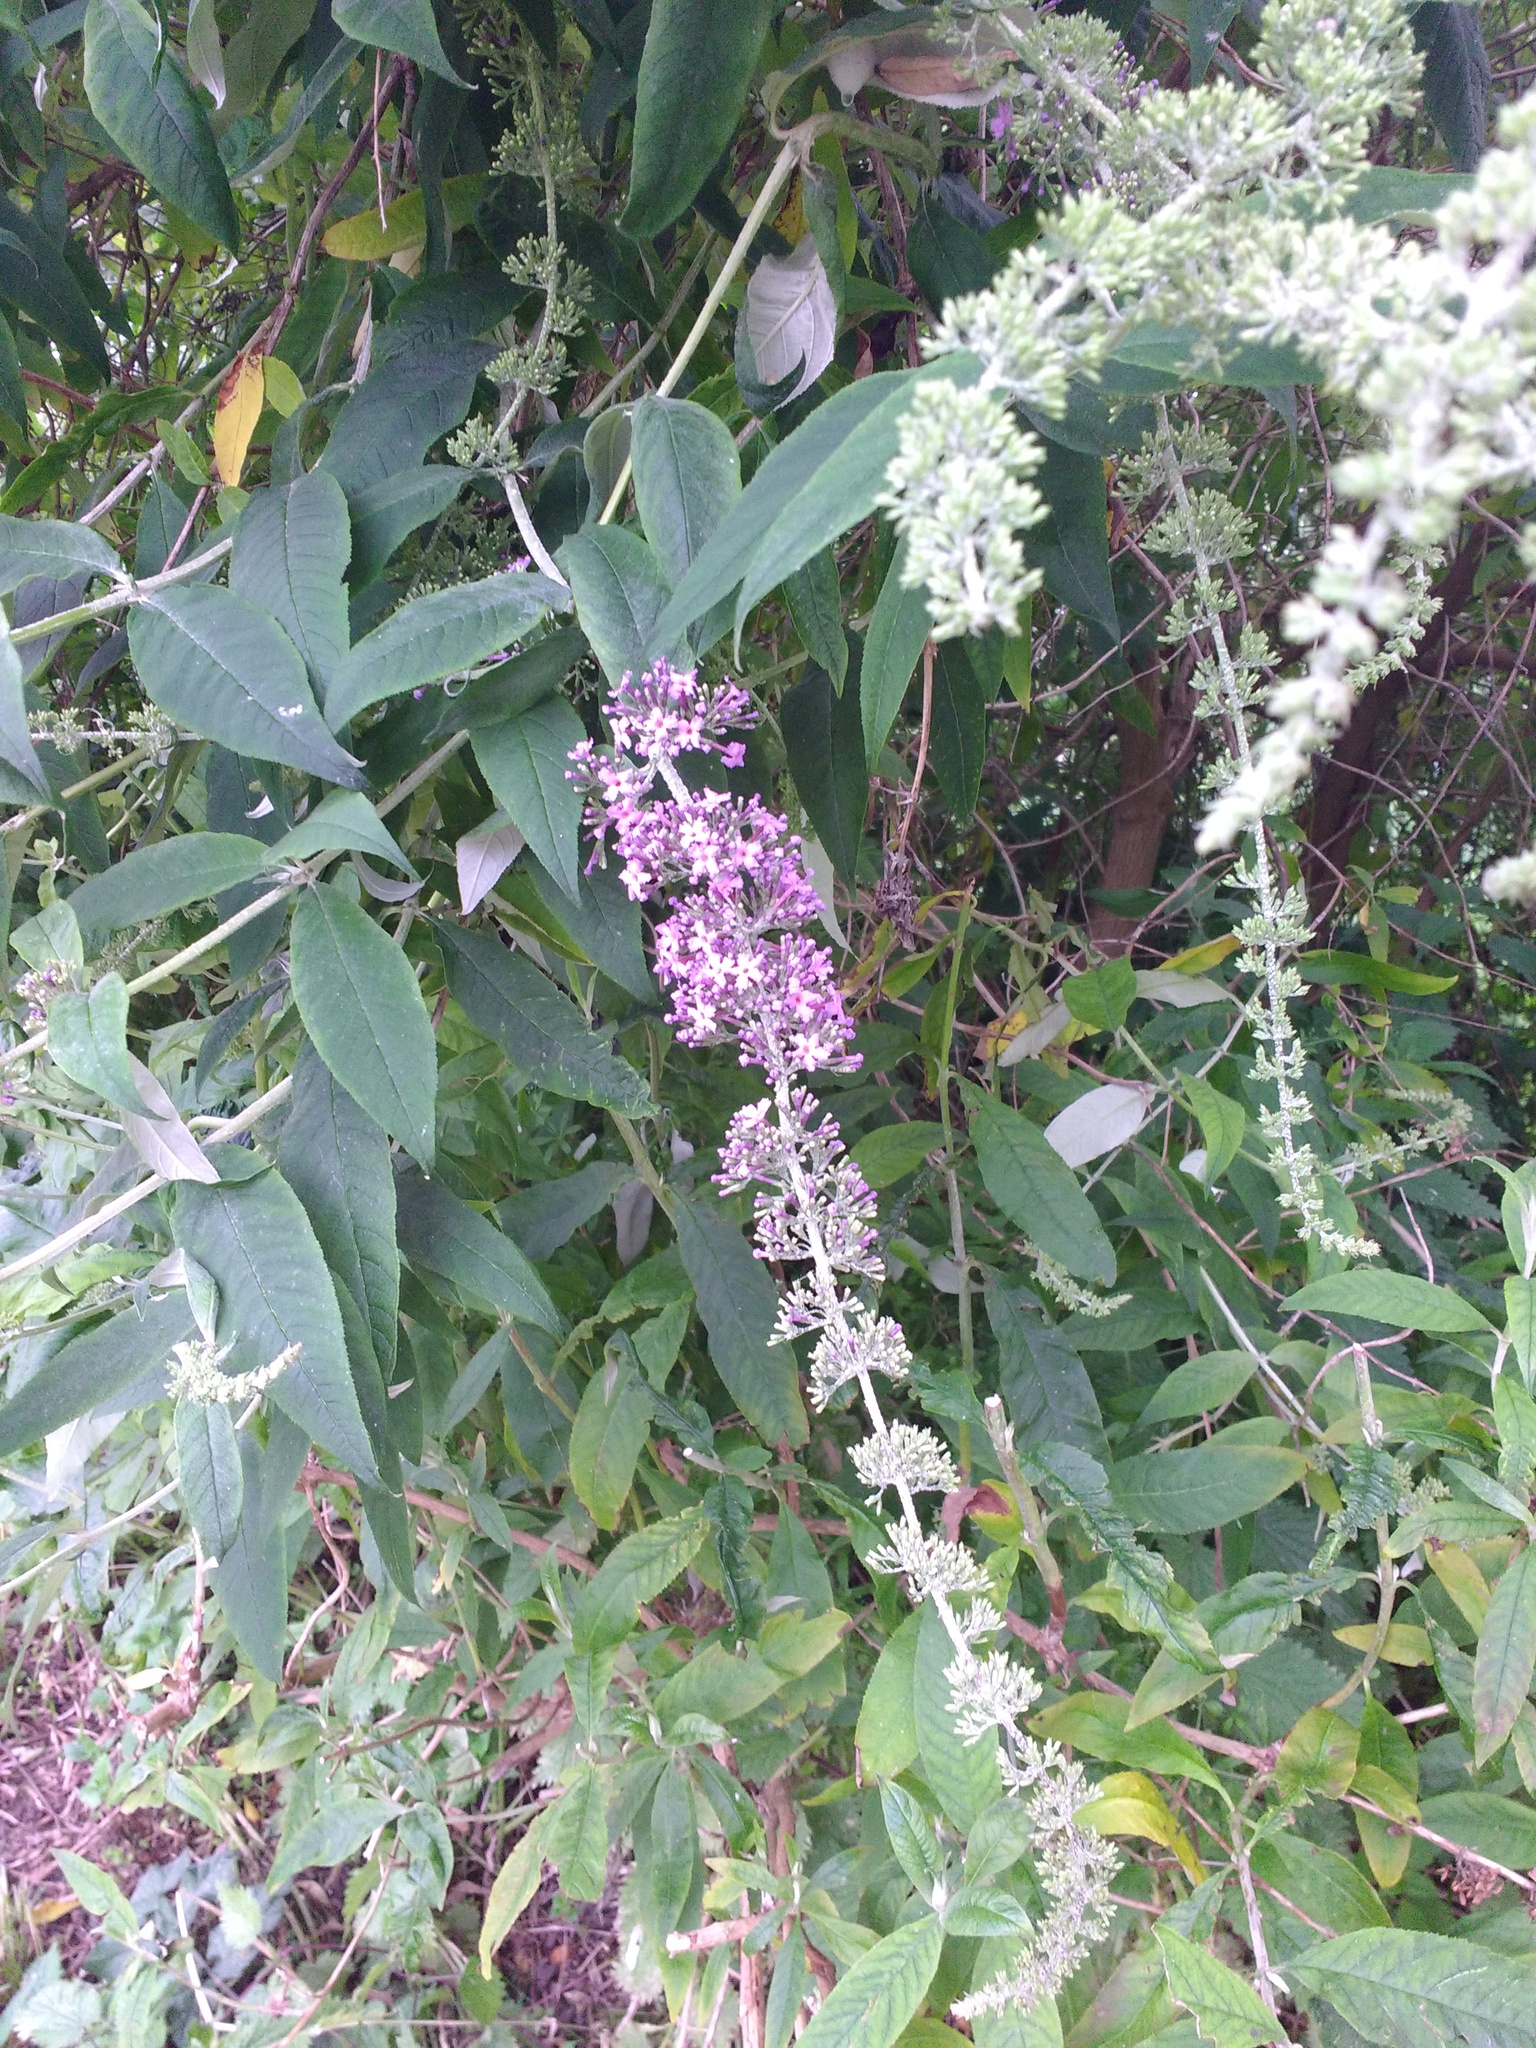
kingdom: Plantae
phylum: Tracheophyta
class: Magnoliopsida
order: Lamiales
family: Scrophulariaceae
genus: Buddleja
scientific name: Buddleja davidii
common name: Butterfly-bush
